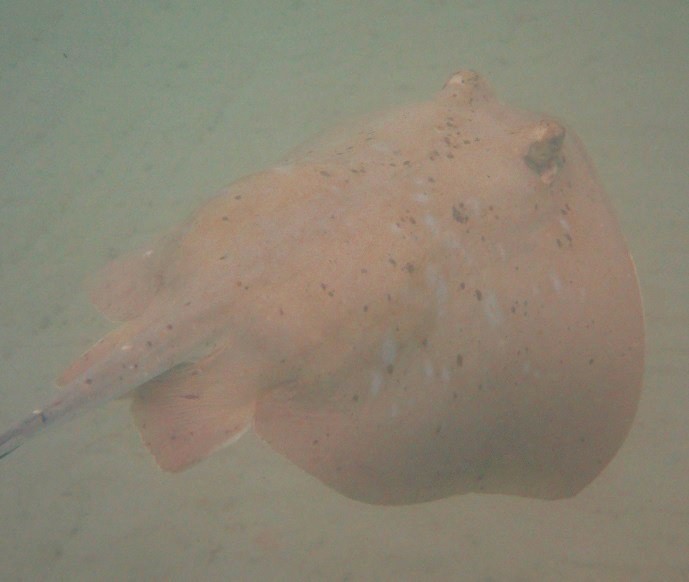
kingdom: Animalia
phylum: Chordata
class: Elasmobranchii
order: Myliobatiformes
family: Dasyatidae
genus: Neotrygon
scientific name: Neotrygon kuhlii
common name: Bluespotted stingray
